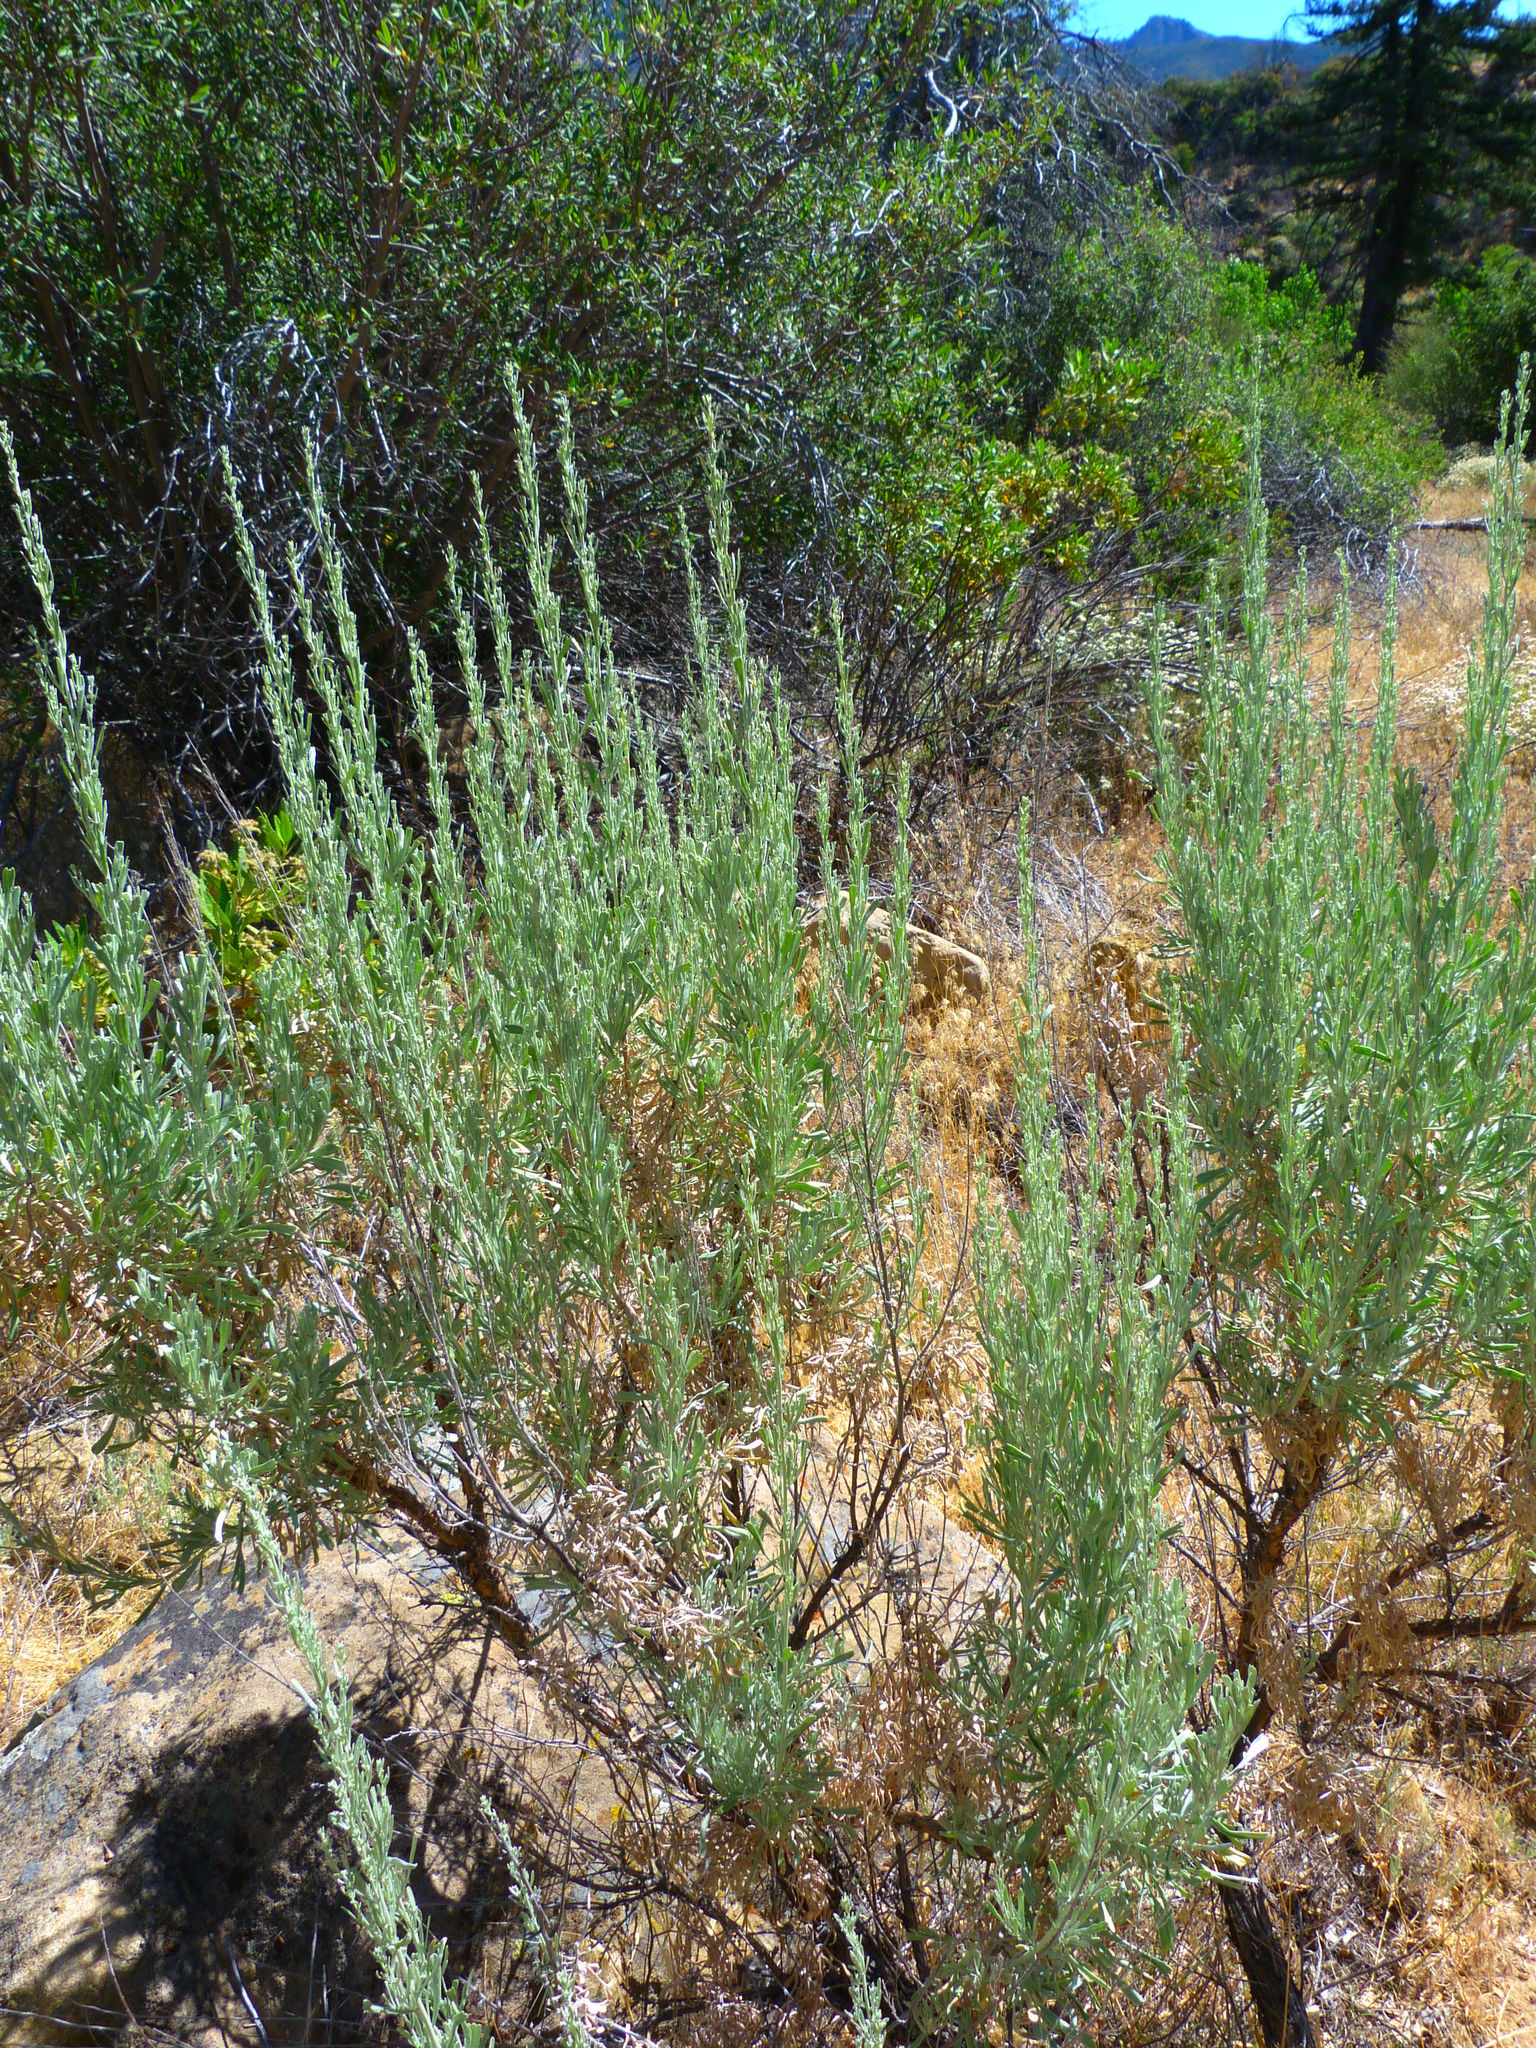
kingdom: Plantae
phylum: Tracheophyta
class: Magnoliopsida
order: Asterales
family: Asteraceae
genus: Artemisia
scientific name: Artemisia tridentata
